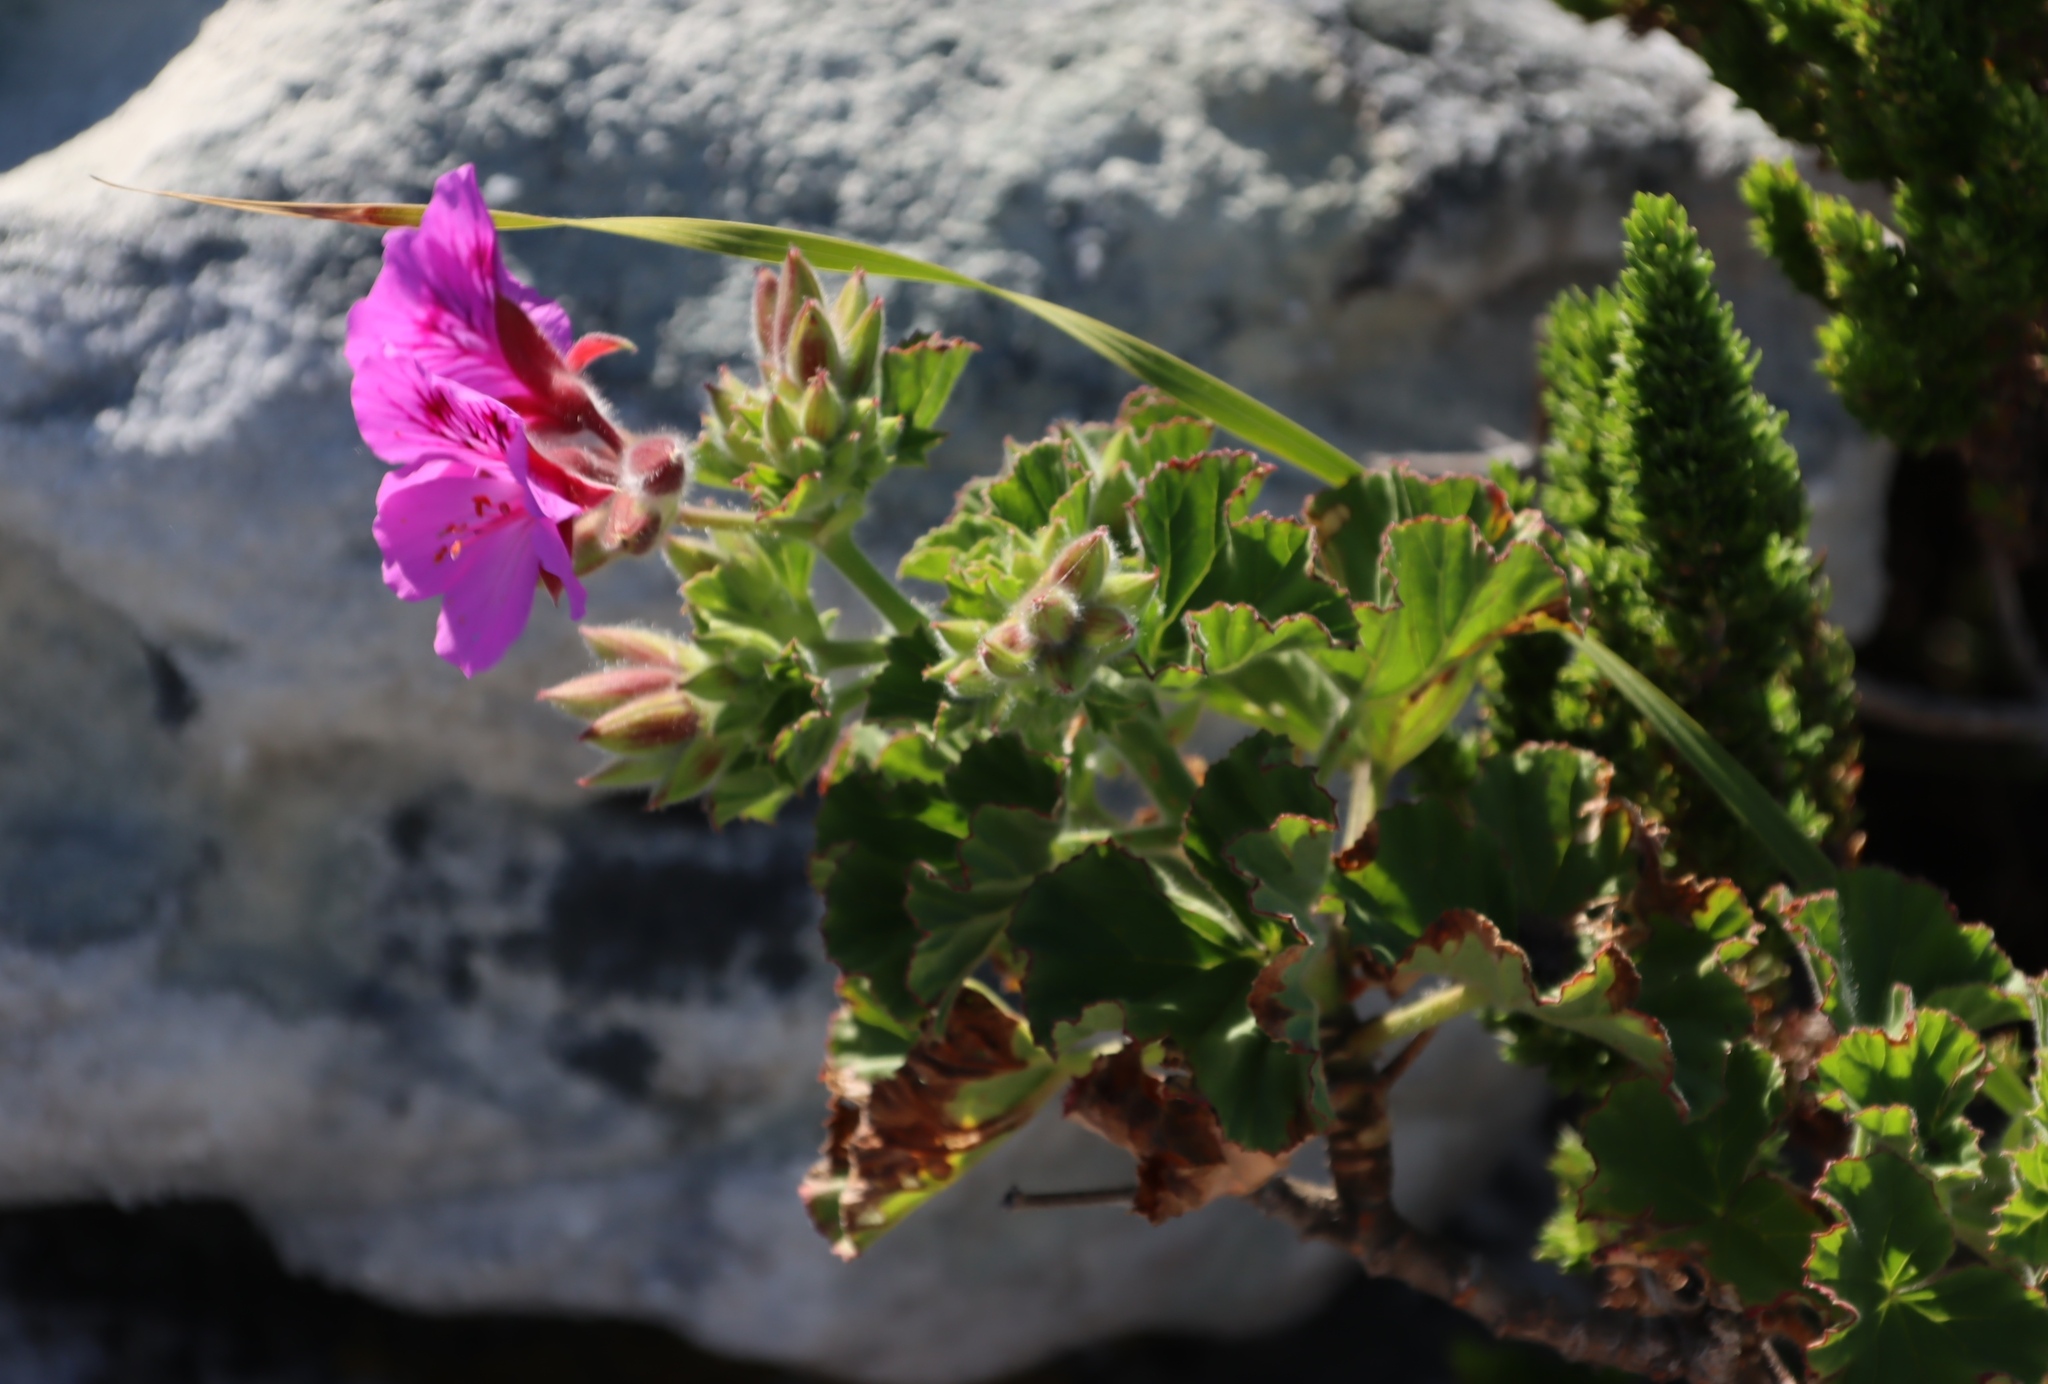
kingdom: Plantae
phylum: Tracheophyta
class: Magnoliopsida
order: Geraniales
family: Geraniaceae
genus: Pelargonium
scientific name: Pelargonium cucullatum
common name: Tree pelargonium
